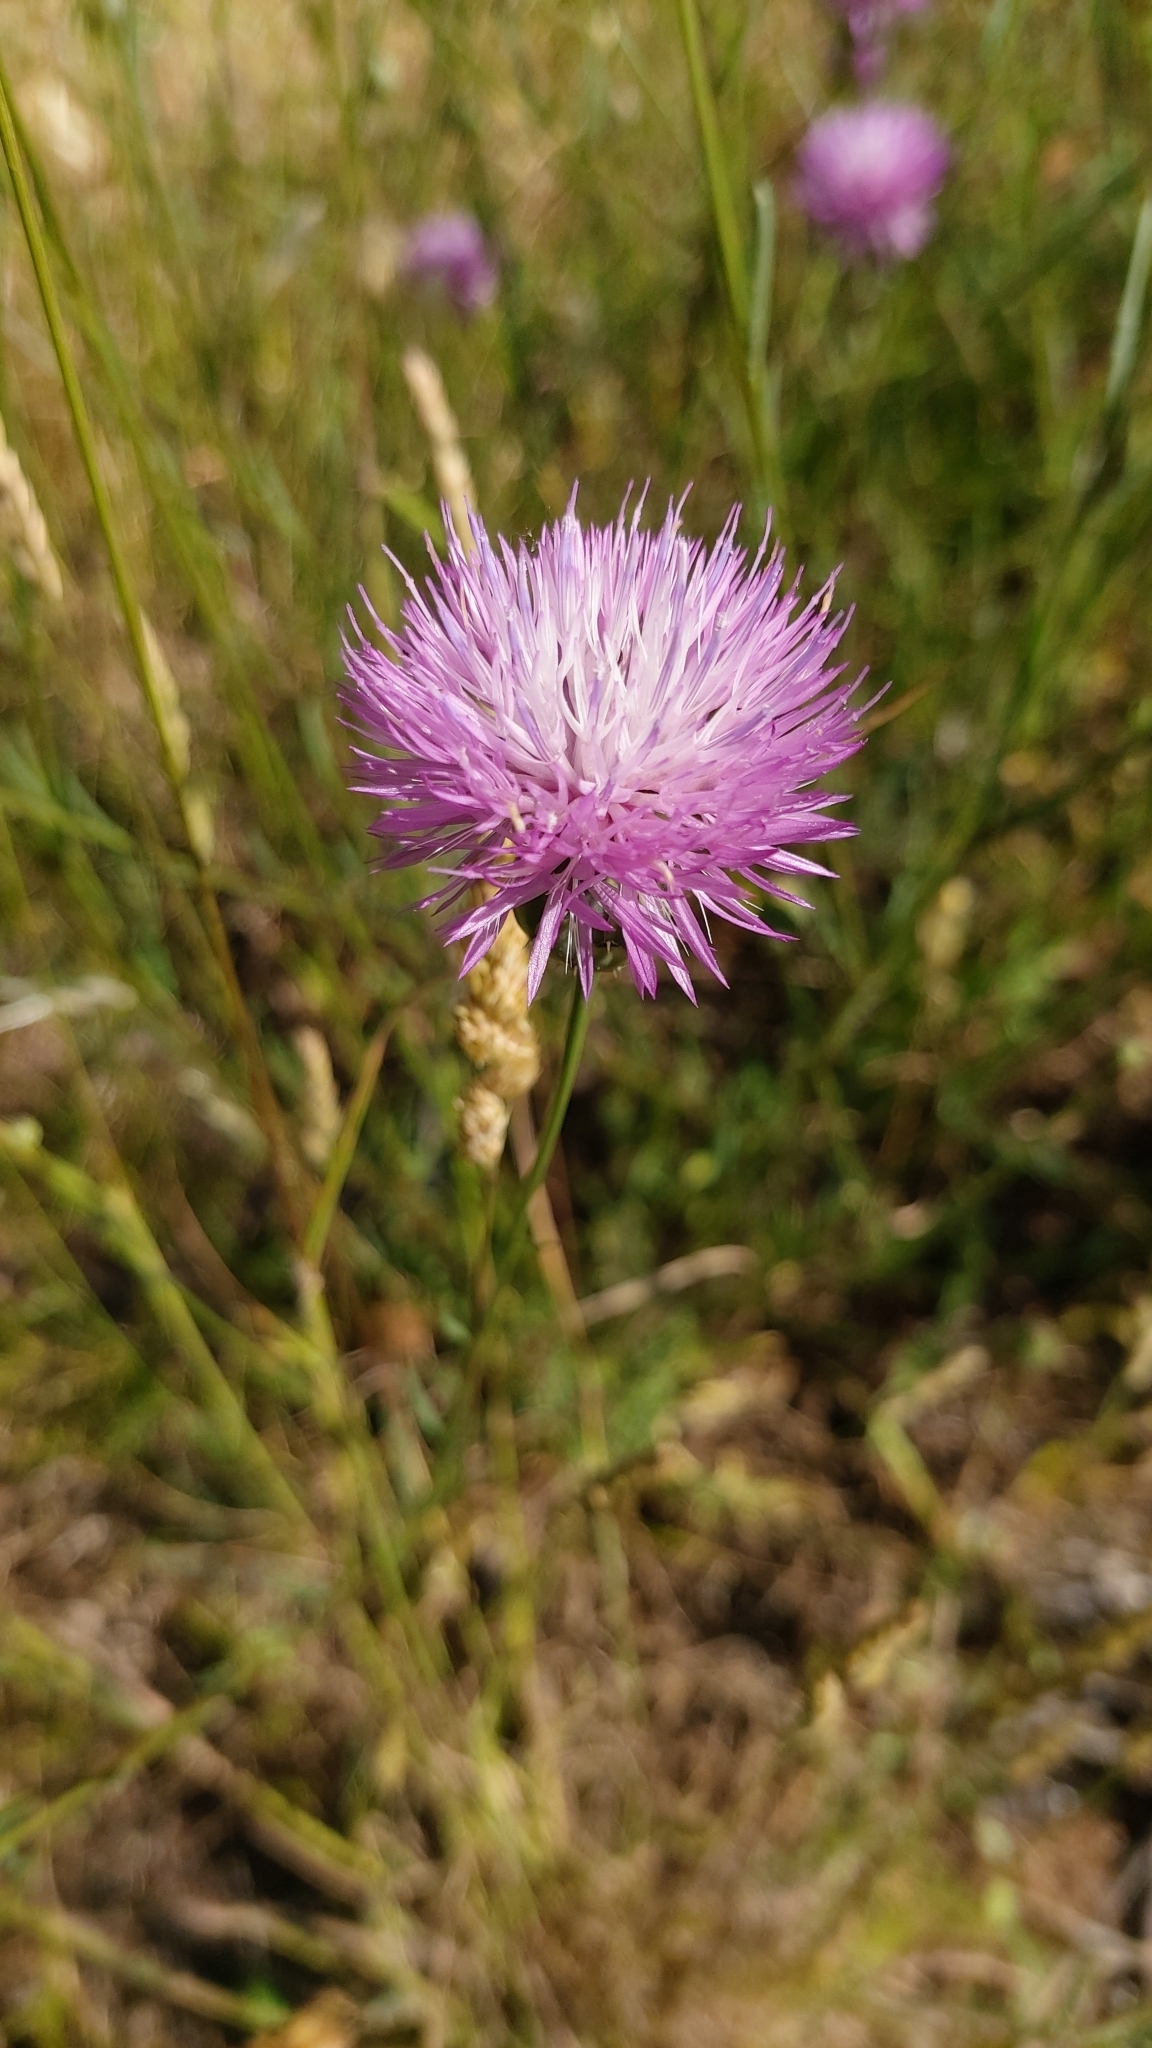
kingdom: Plantae
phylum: Tracheophyta
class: Magnoliopsida
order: Asterales
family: Asteraceae
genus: Mantisalca
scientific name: Mantisalca salmantica
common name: Dagger flower
